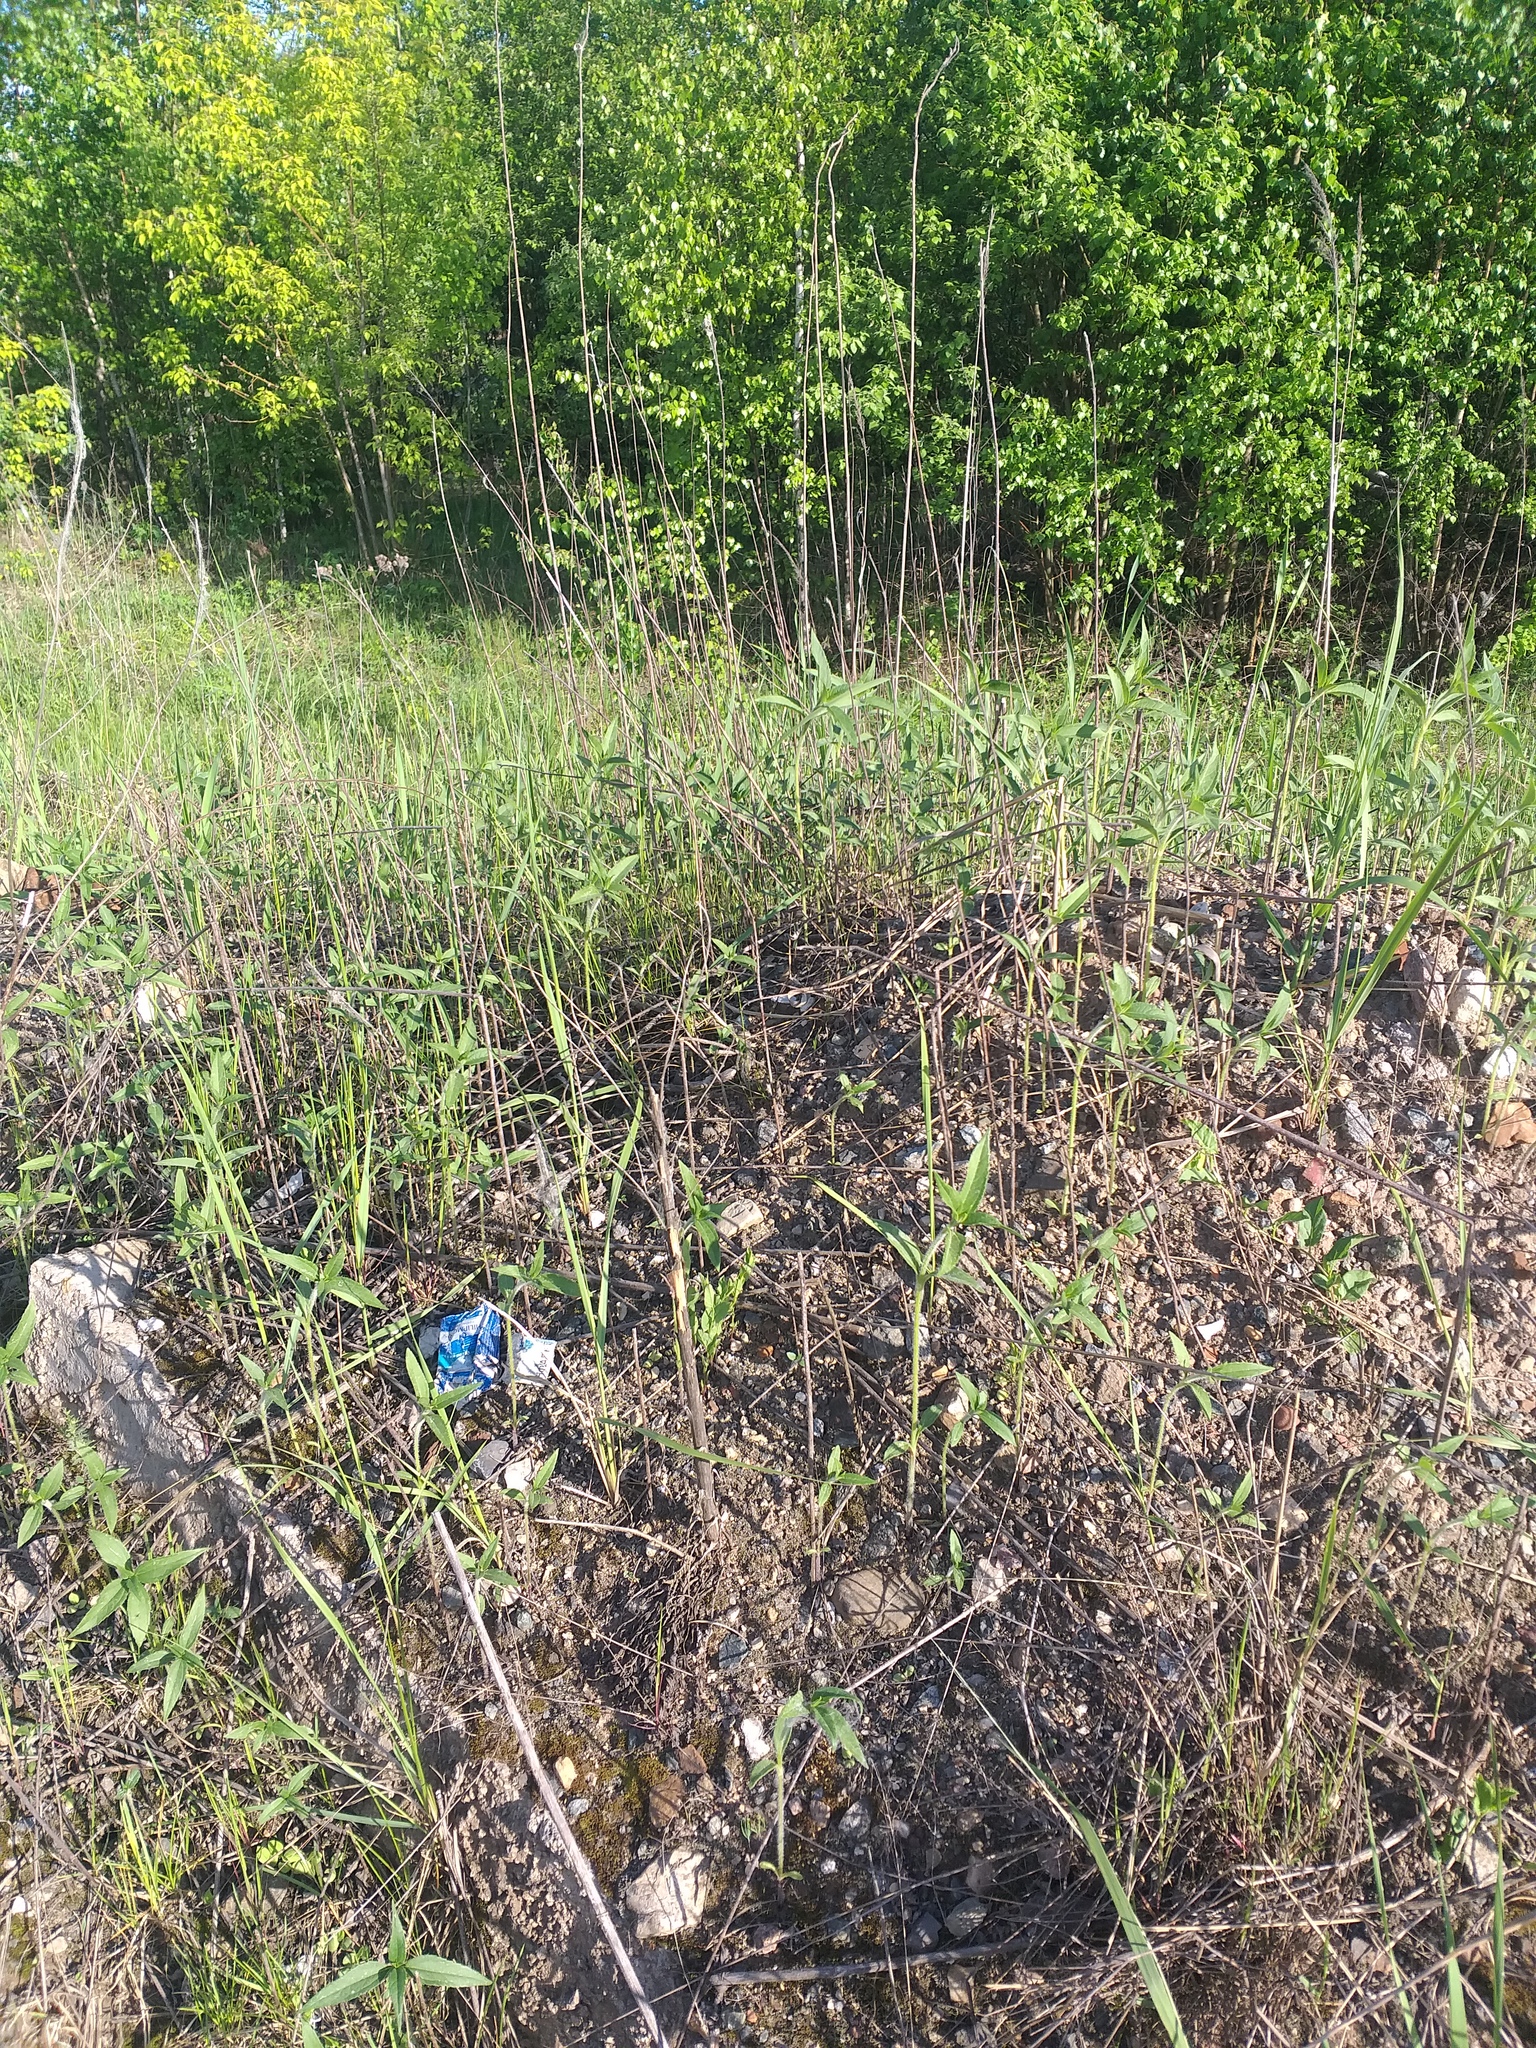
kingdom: Plantae
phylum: Tracheophyta
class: Magnoliopsida
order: Asterales
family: Asteraceae
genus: Helianthus
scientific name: Helianthus tuberosus
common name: Jerusalem artichoke
